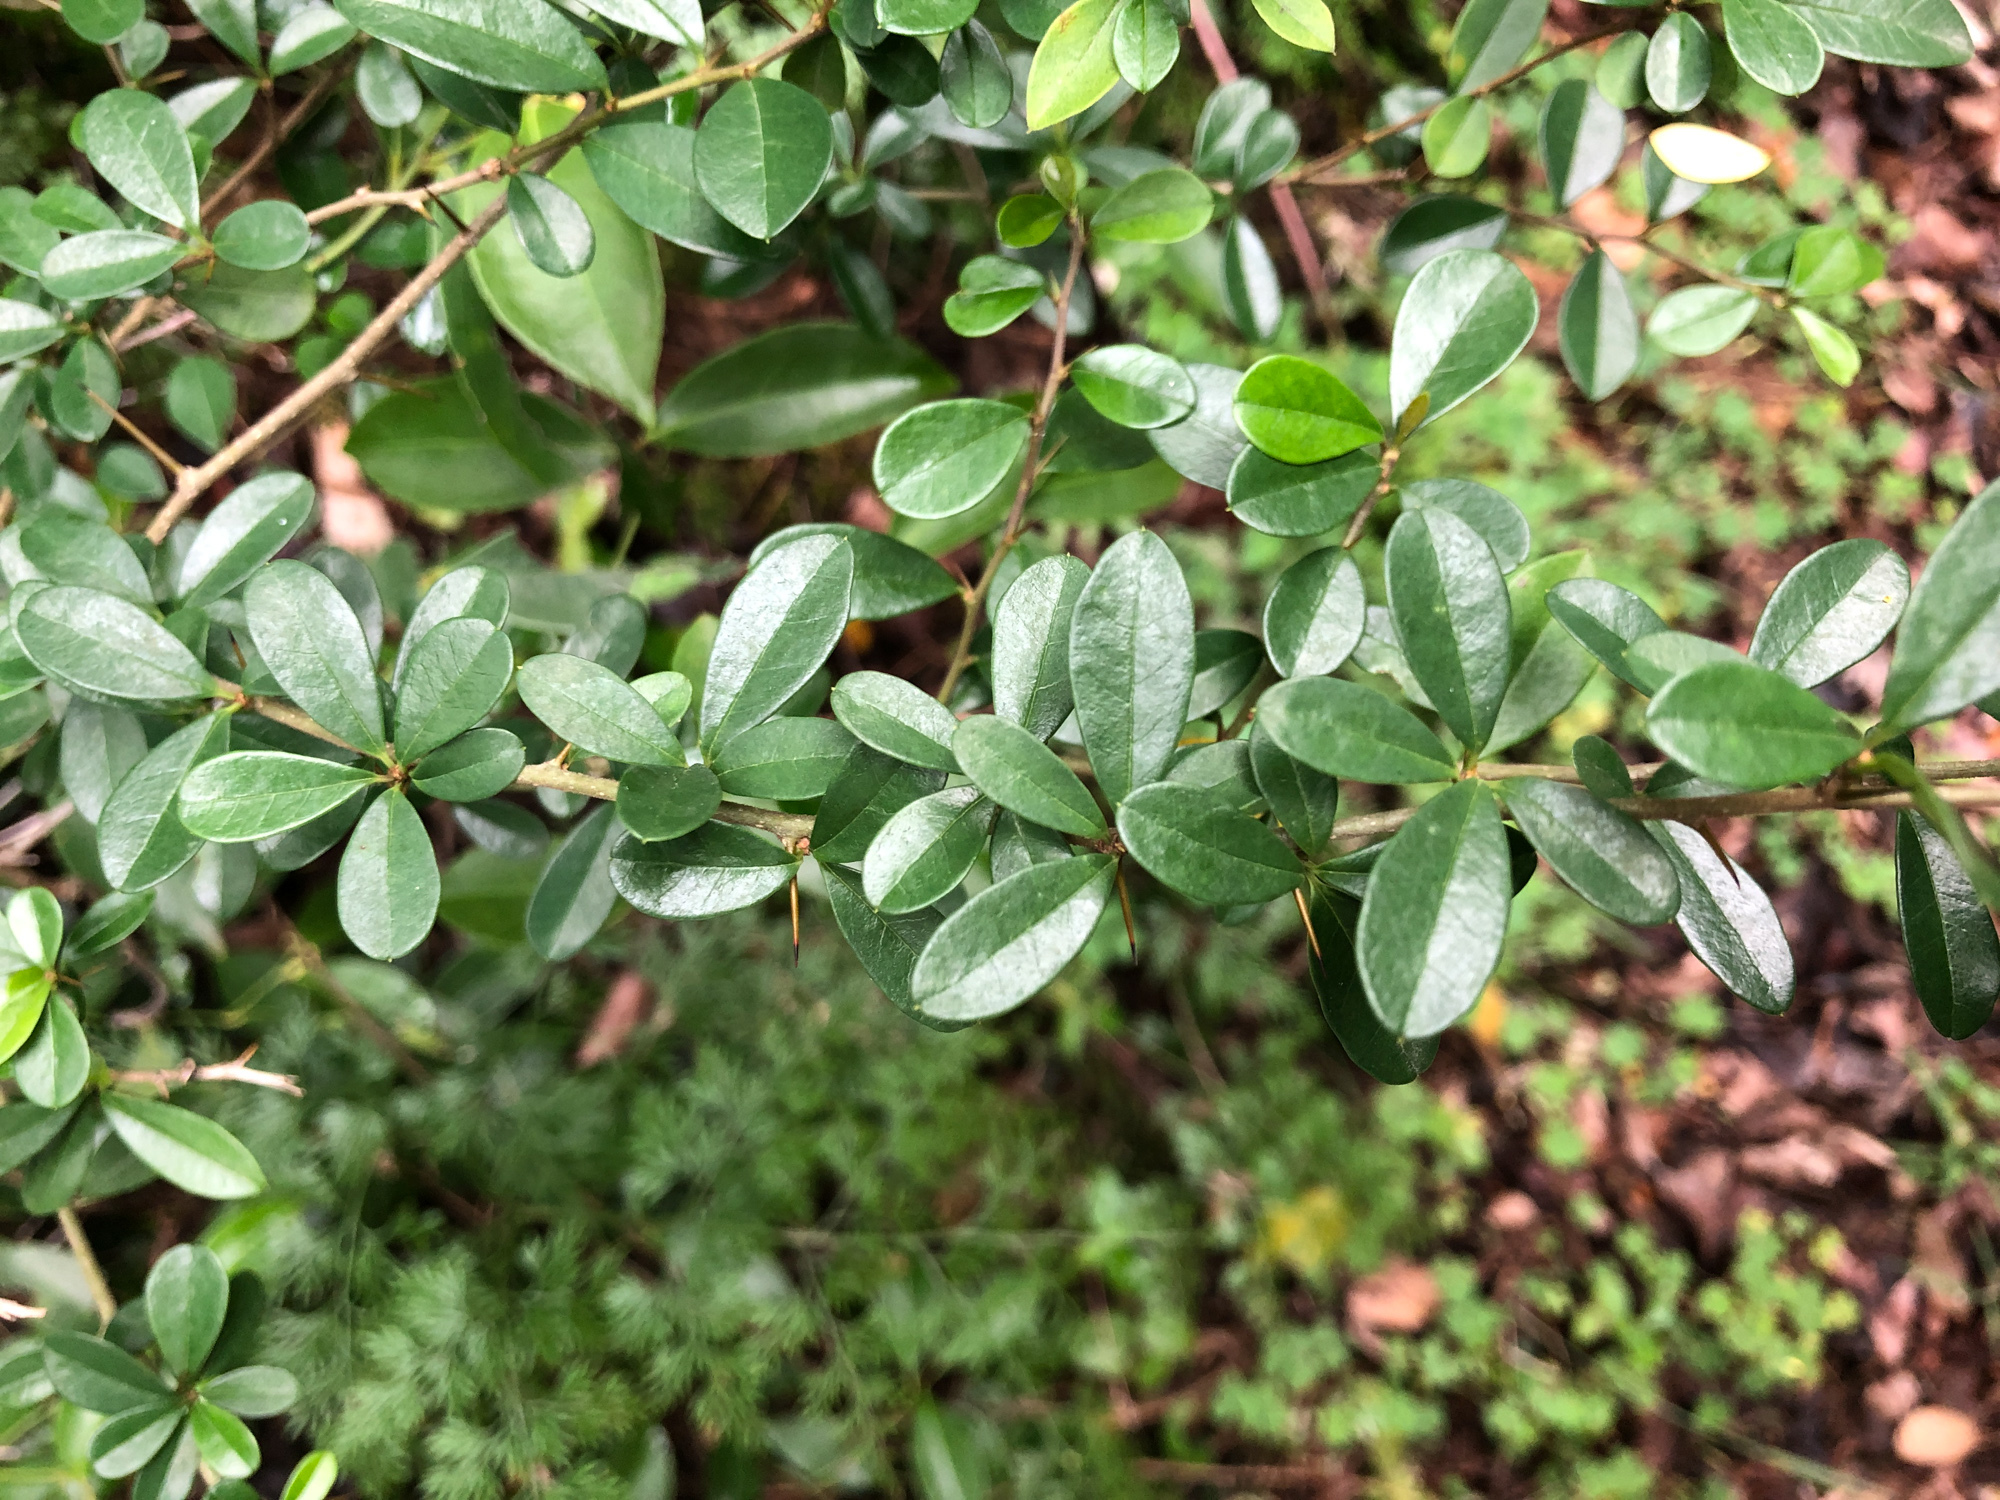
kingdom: Plantae
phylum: Tracheophyta
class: Magnoliopsida
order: Rosales
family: Moraceae
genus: Maclura
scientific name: Maclura cochinchinensis
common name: Cockspurthorn
